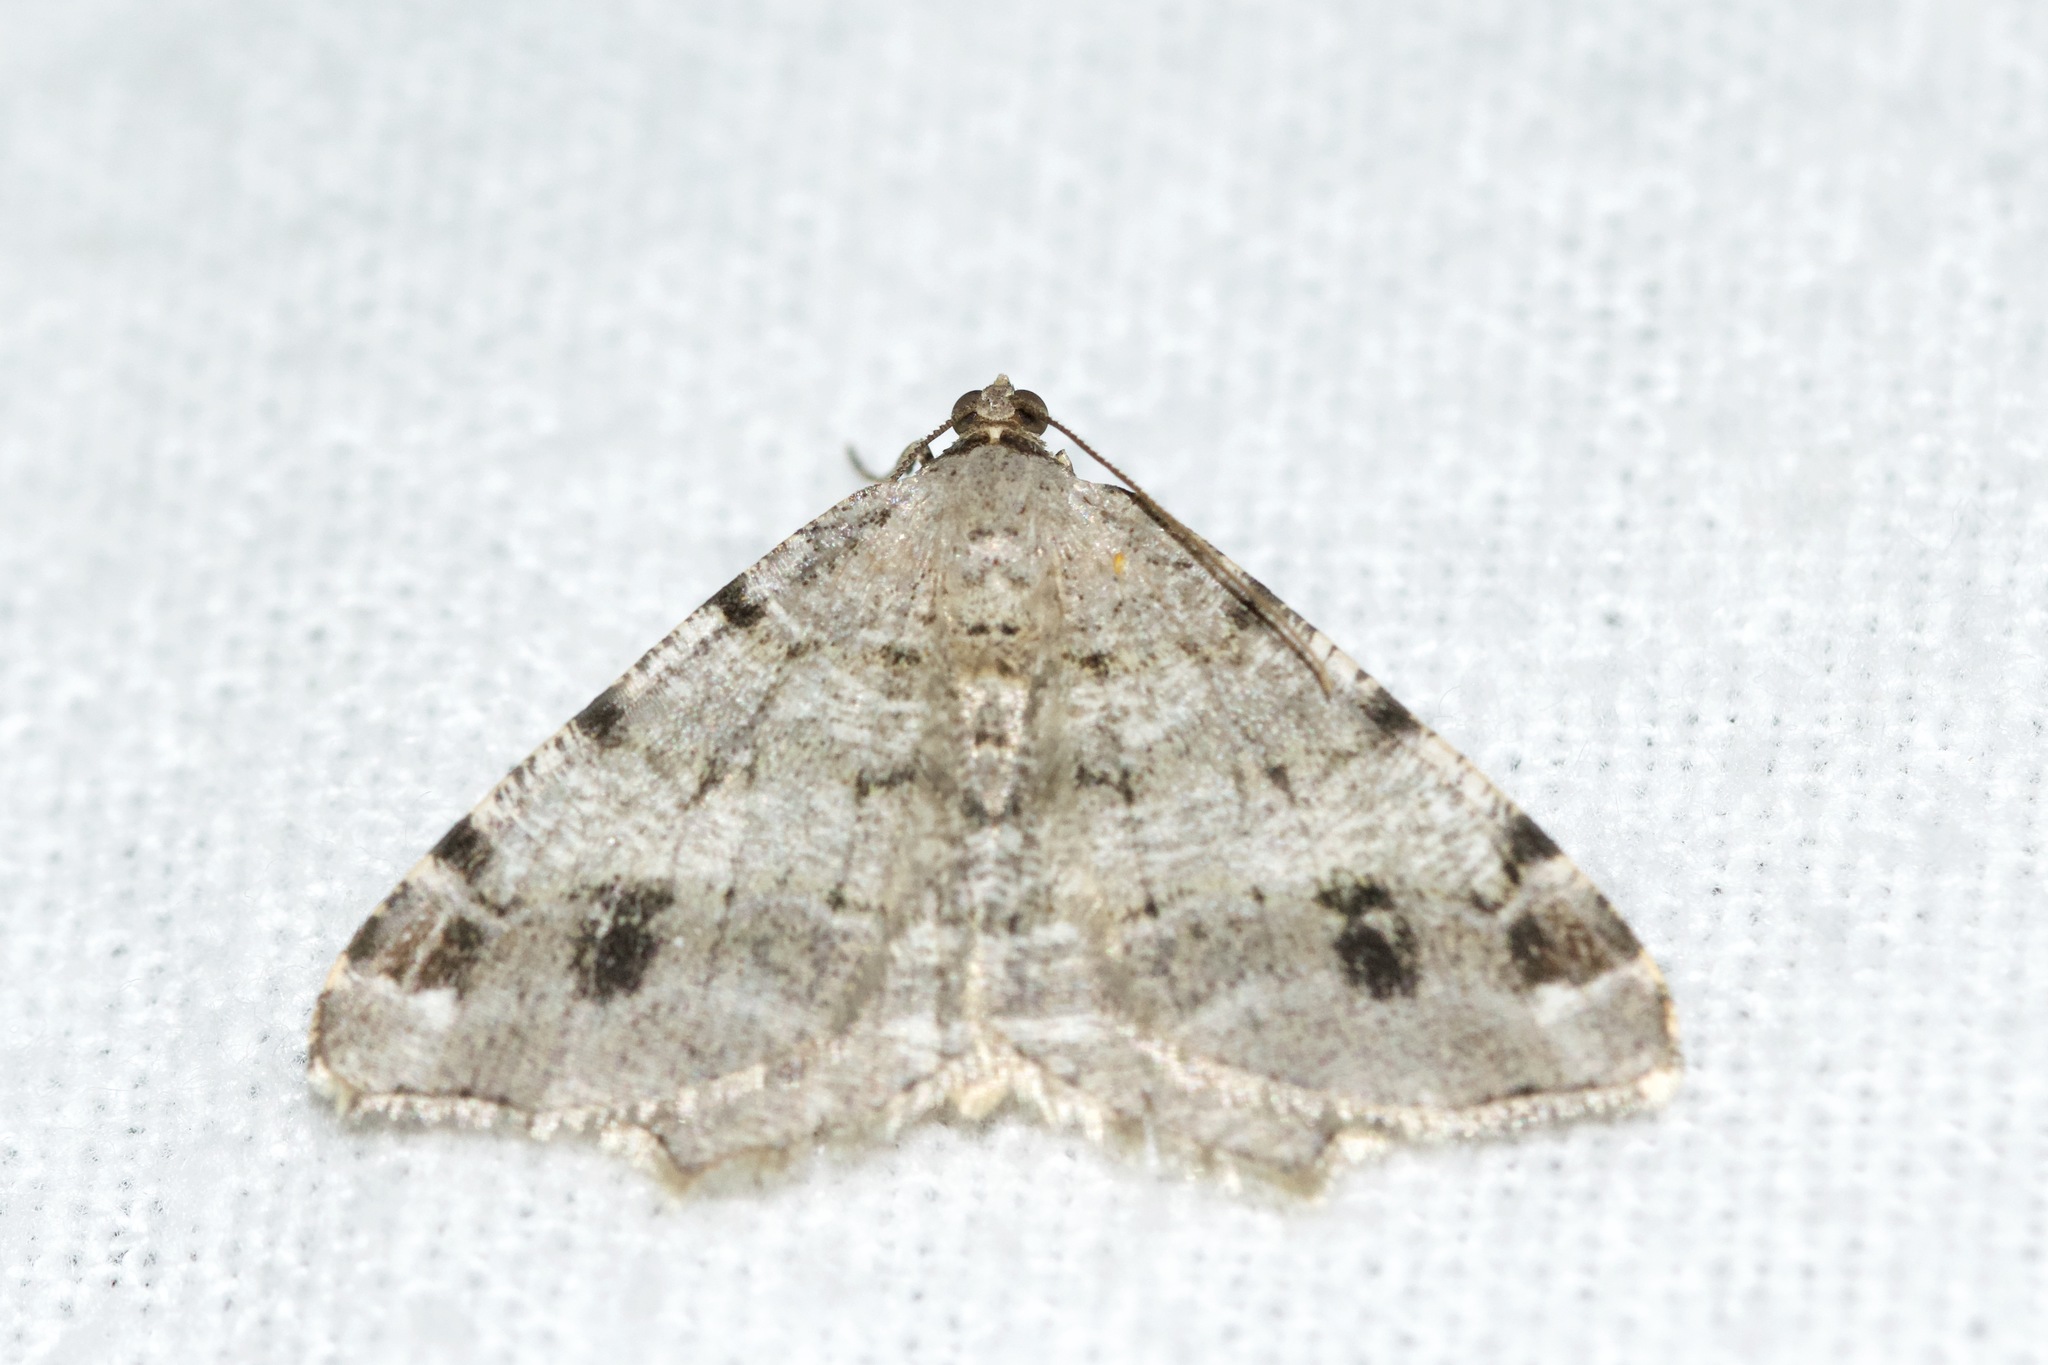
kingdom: Animalia
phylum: Arthropoda
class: Insecta
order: Lepidoptera
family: Geometridae
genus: Macaria
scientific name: Macaria signaria
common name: Dusky peacock
